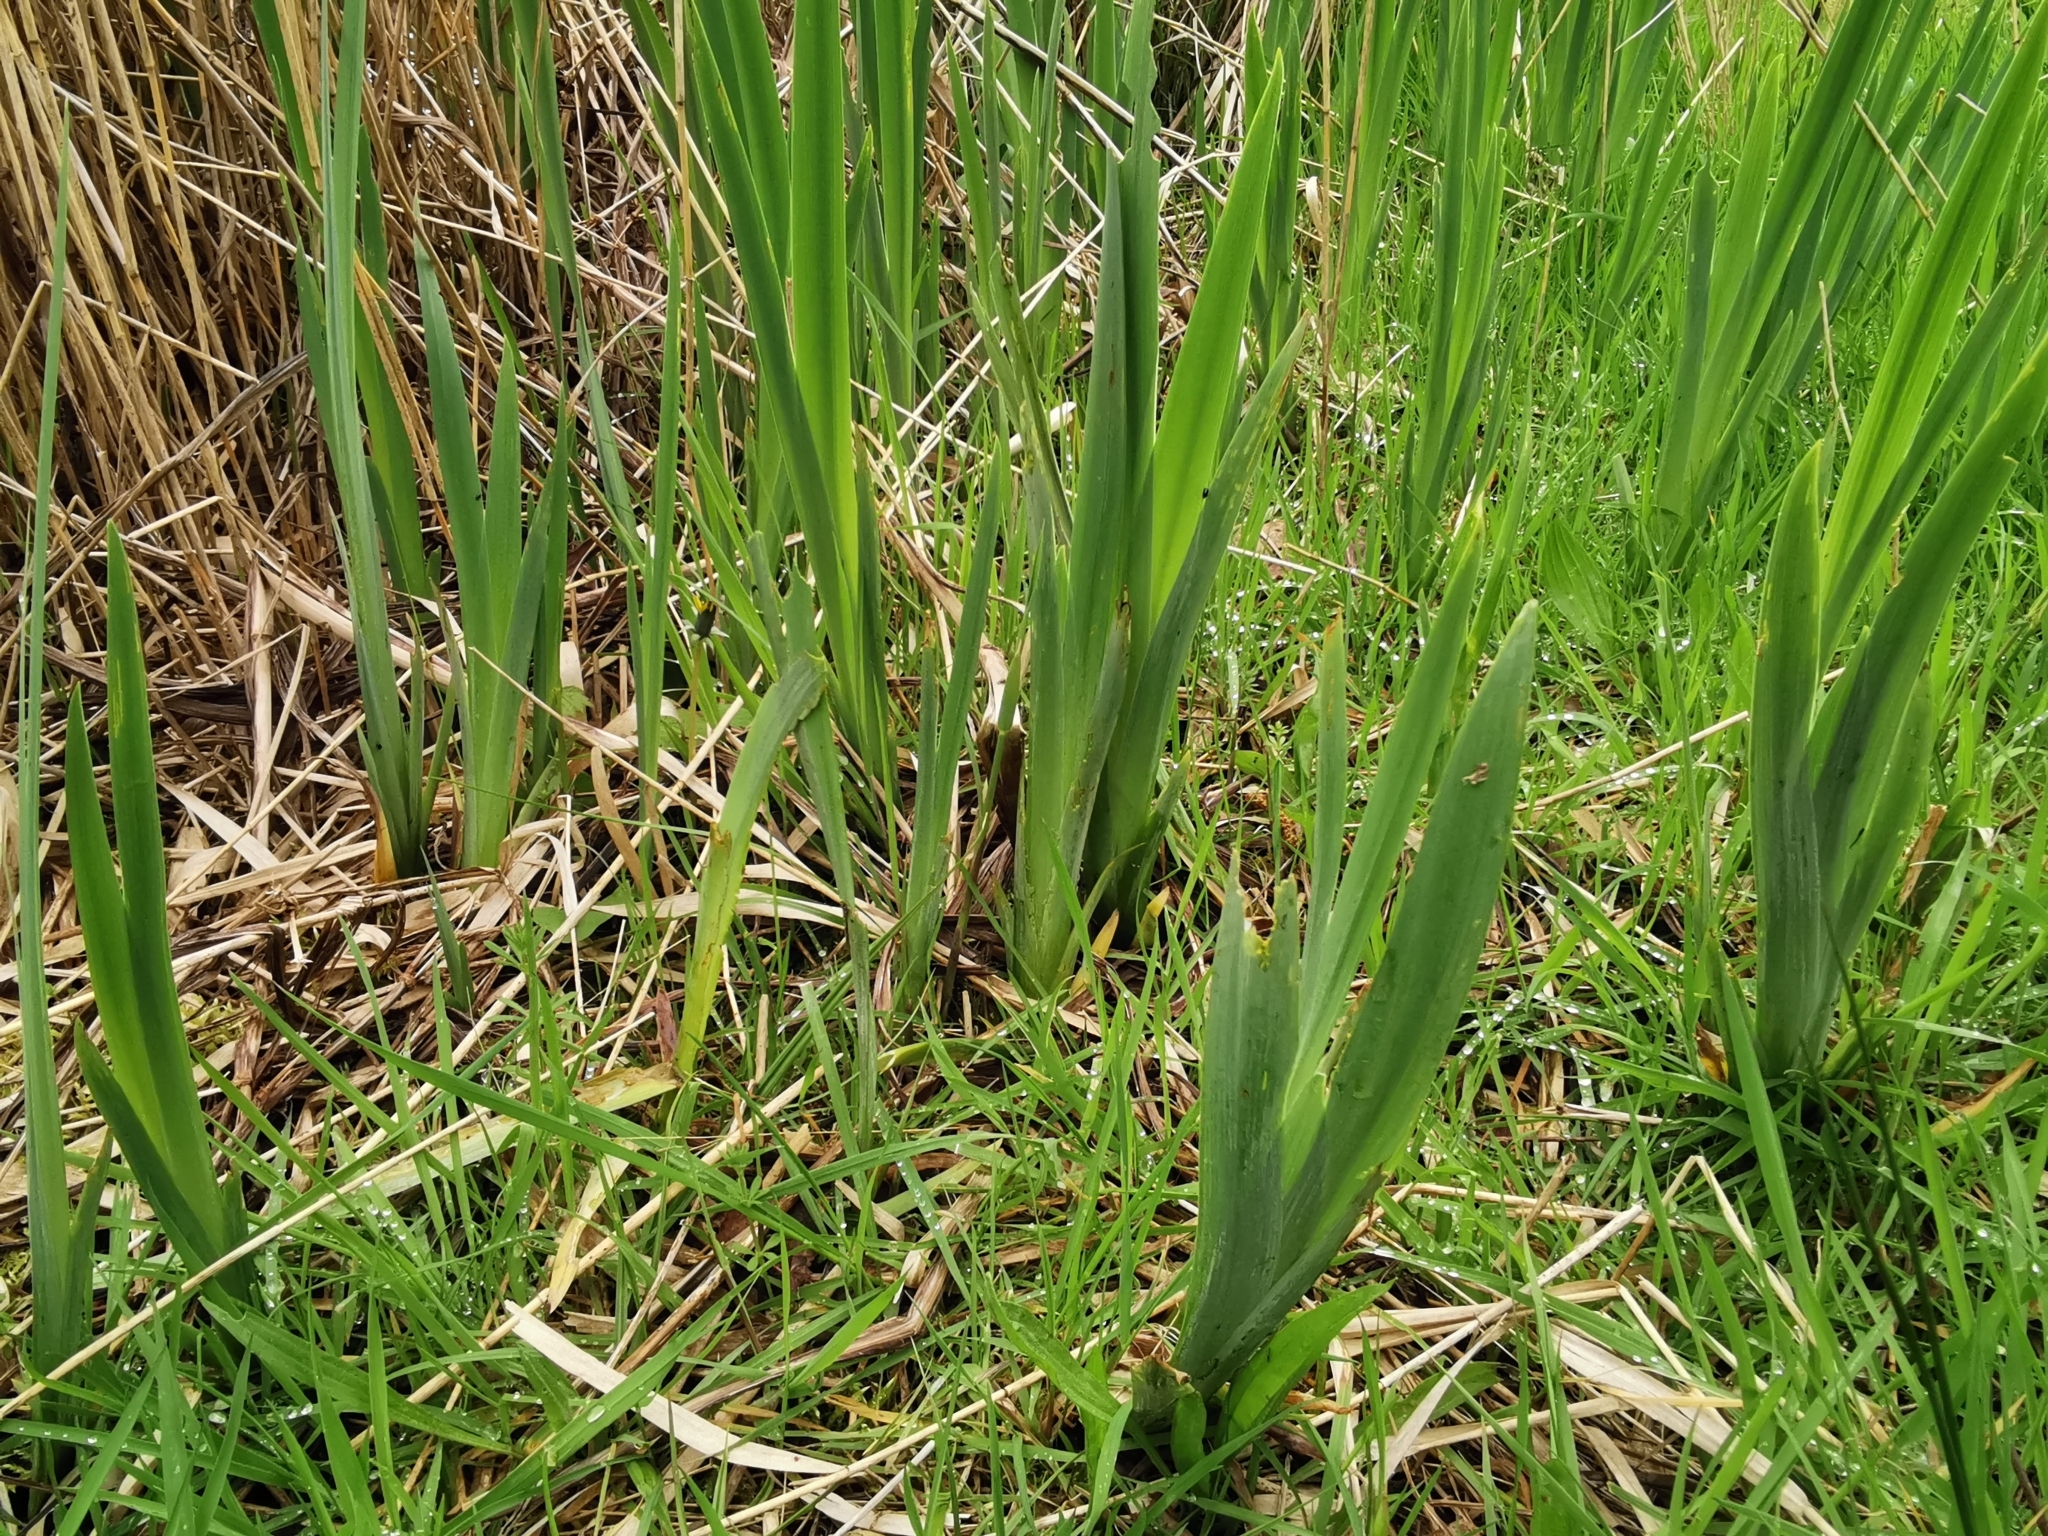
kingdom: Plantae
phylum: Tracheophyta
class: Liliopsida
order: Asparagales
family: Iridaceae
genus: Iris
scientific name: Iris pseudacorus
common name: Yellow flag
